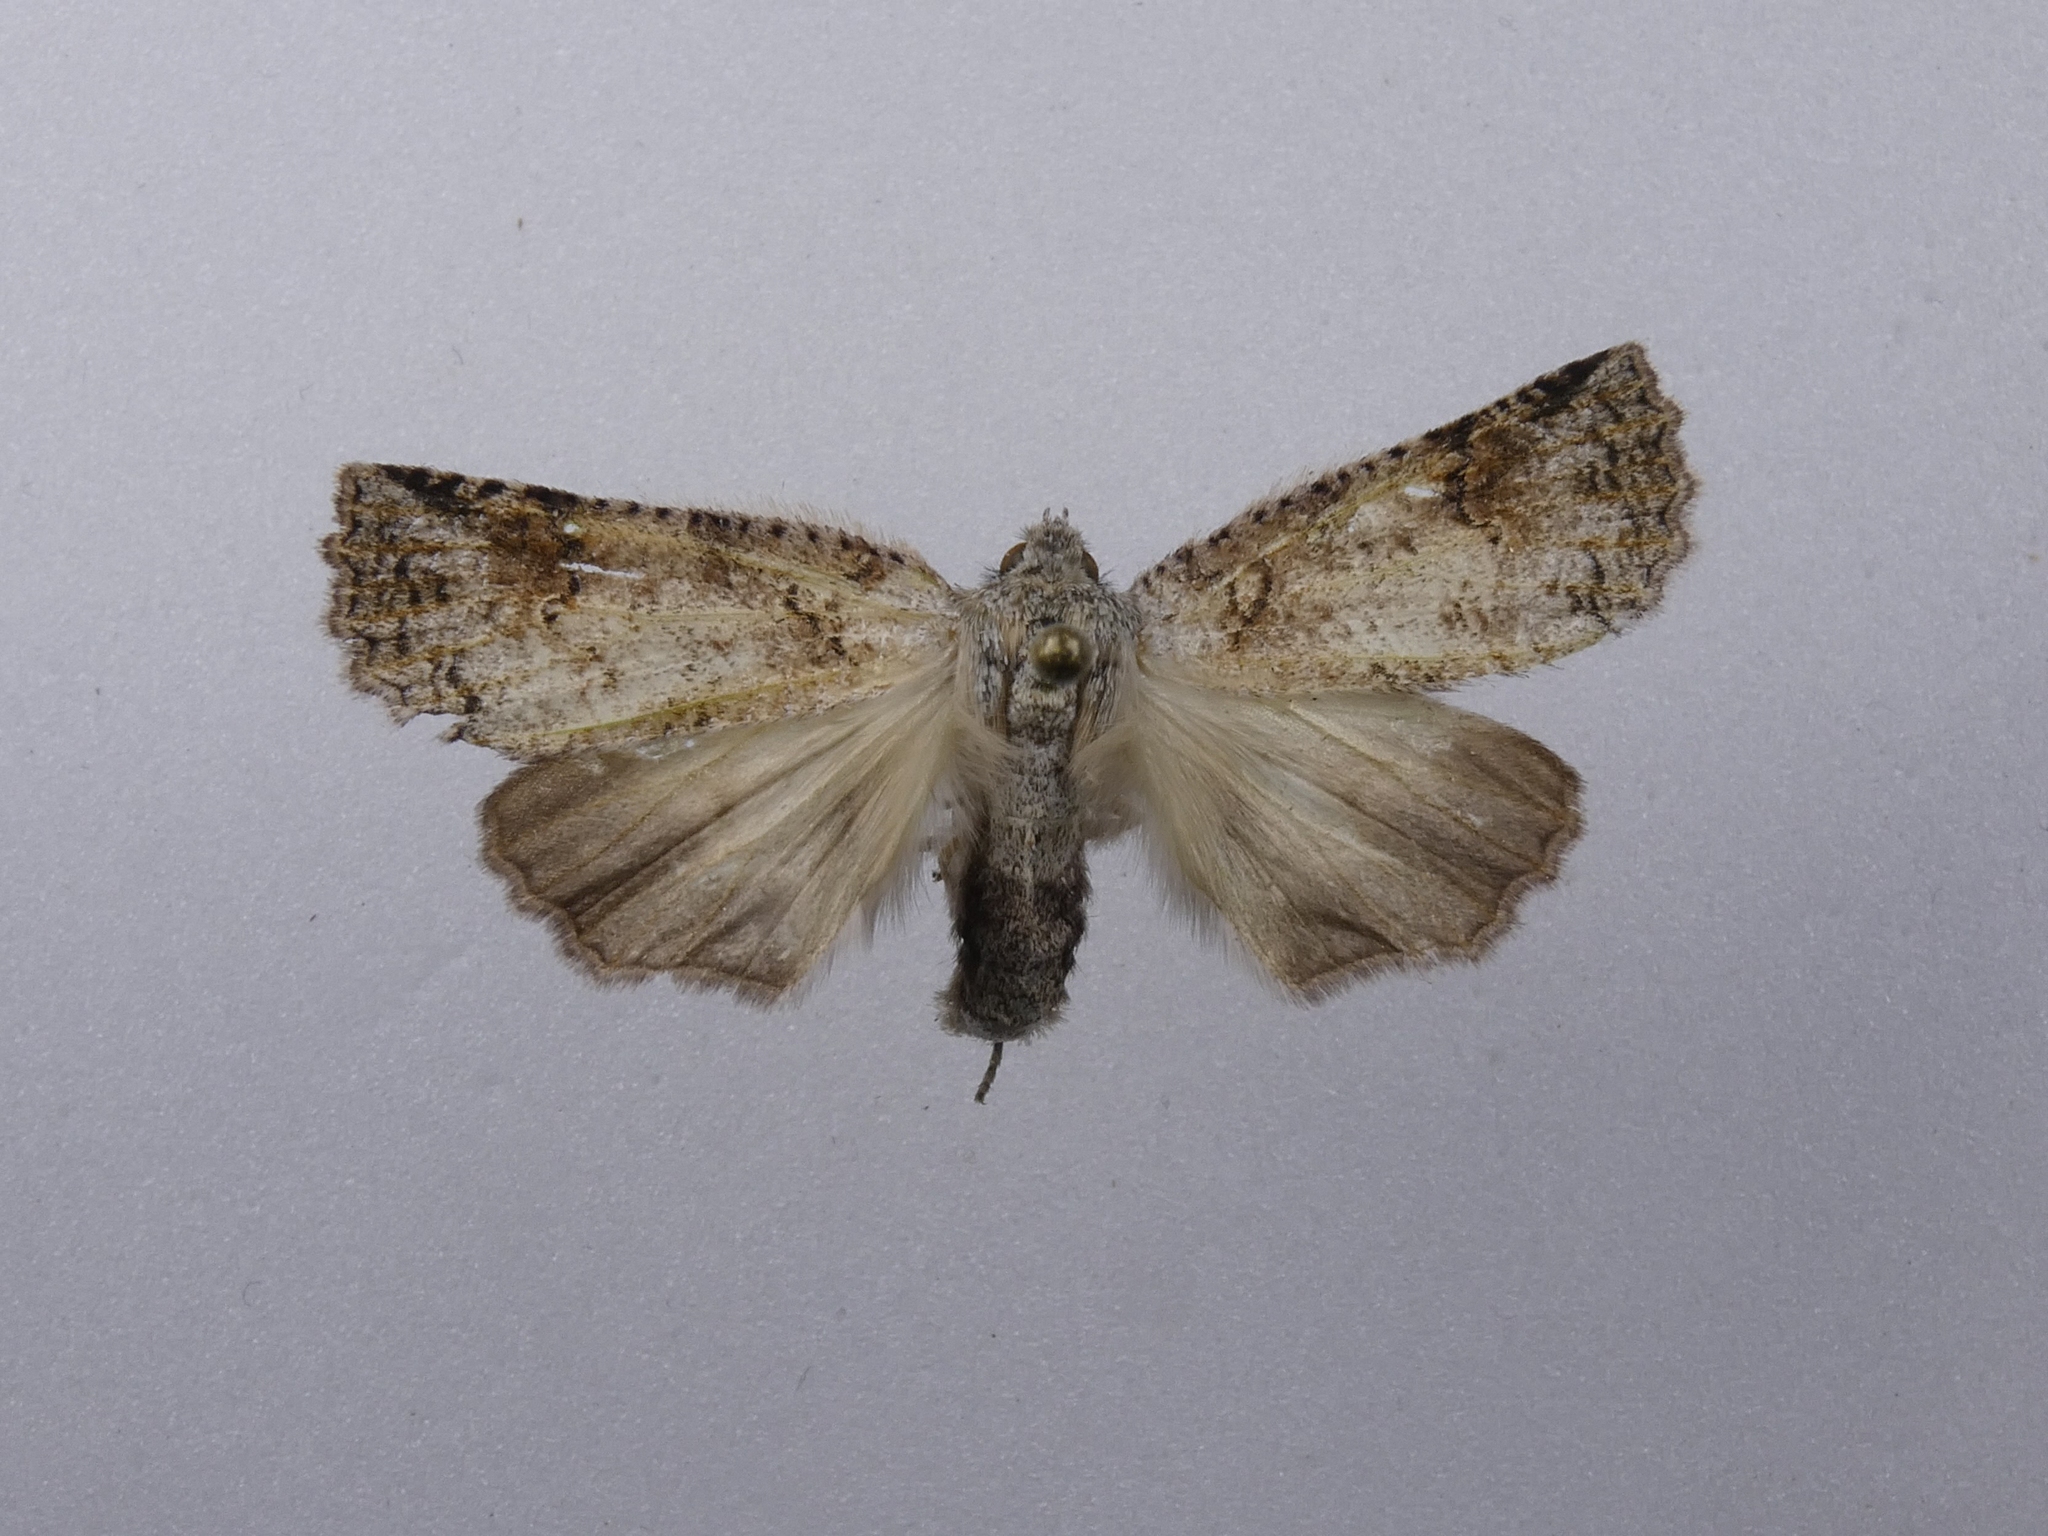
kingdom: Animalia
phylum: Arthropoda
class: Insecta
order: Lepidoptera
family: Geometridae
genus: Declana
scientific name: Declana floccosa
